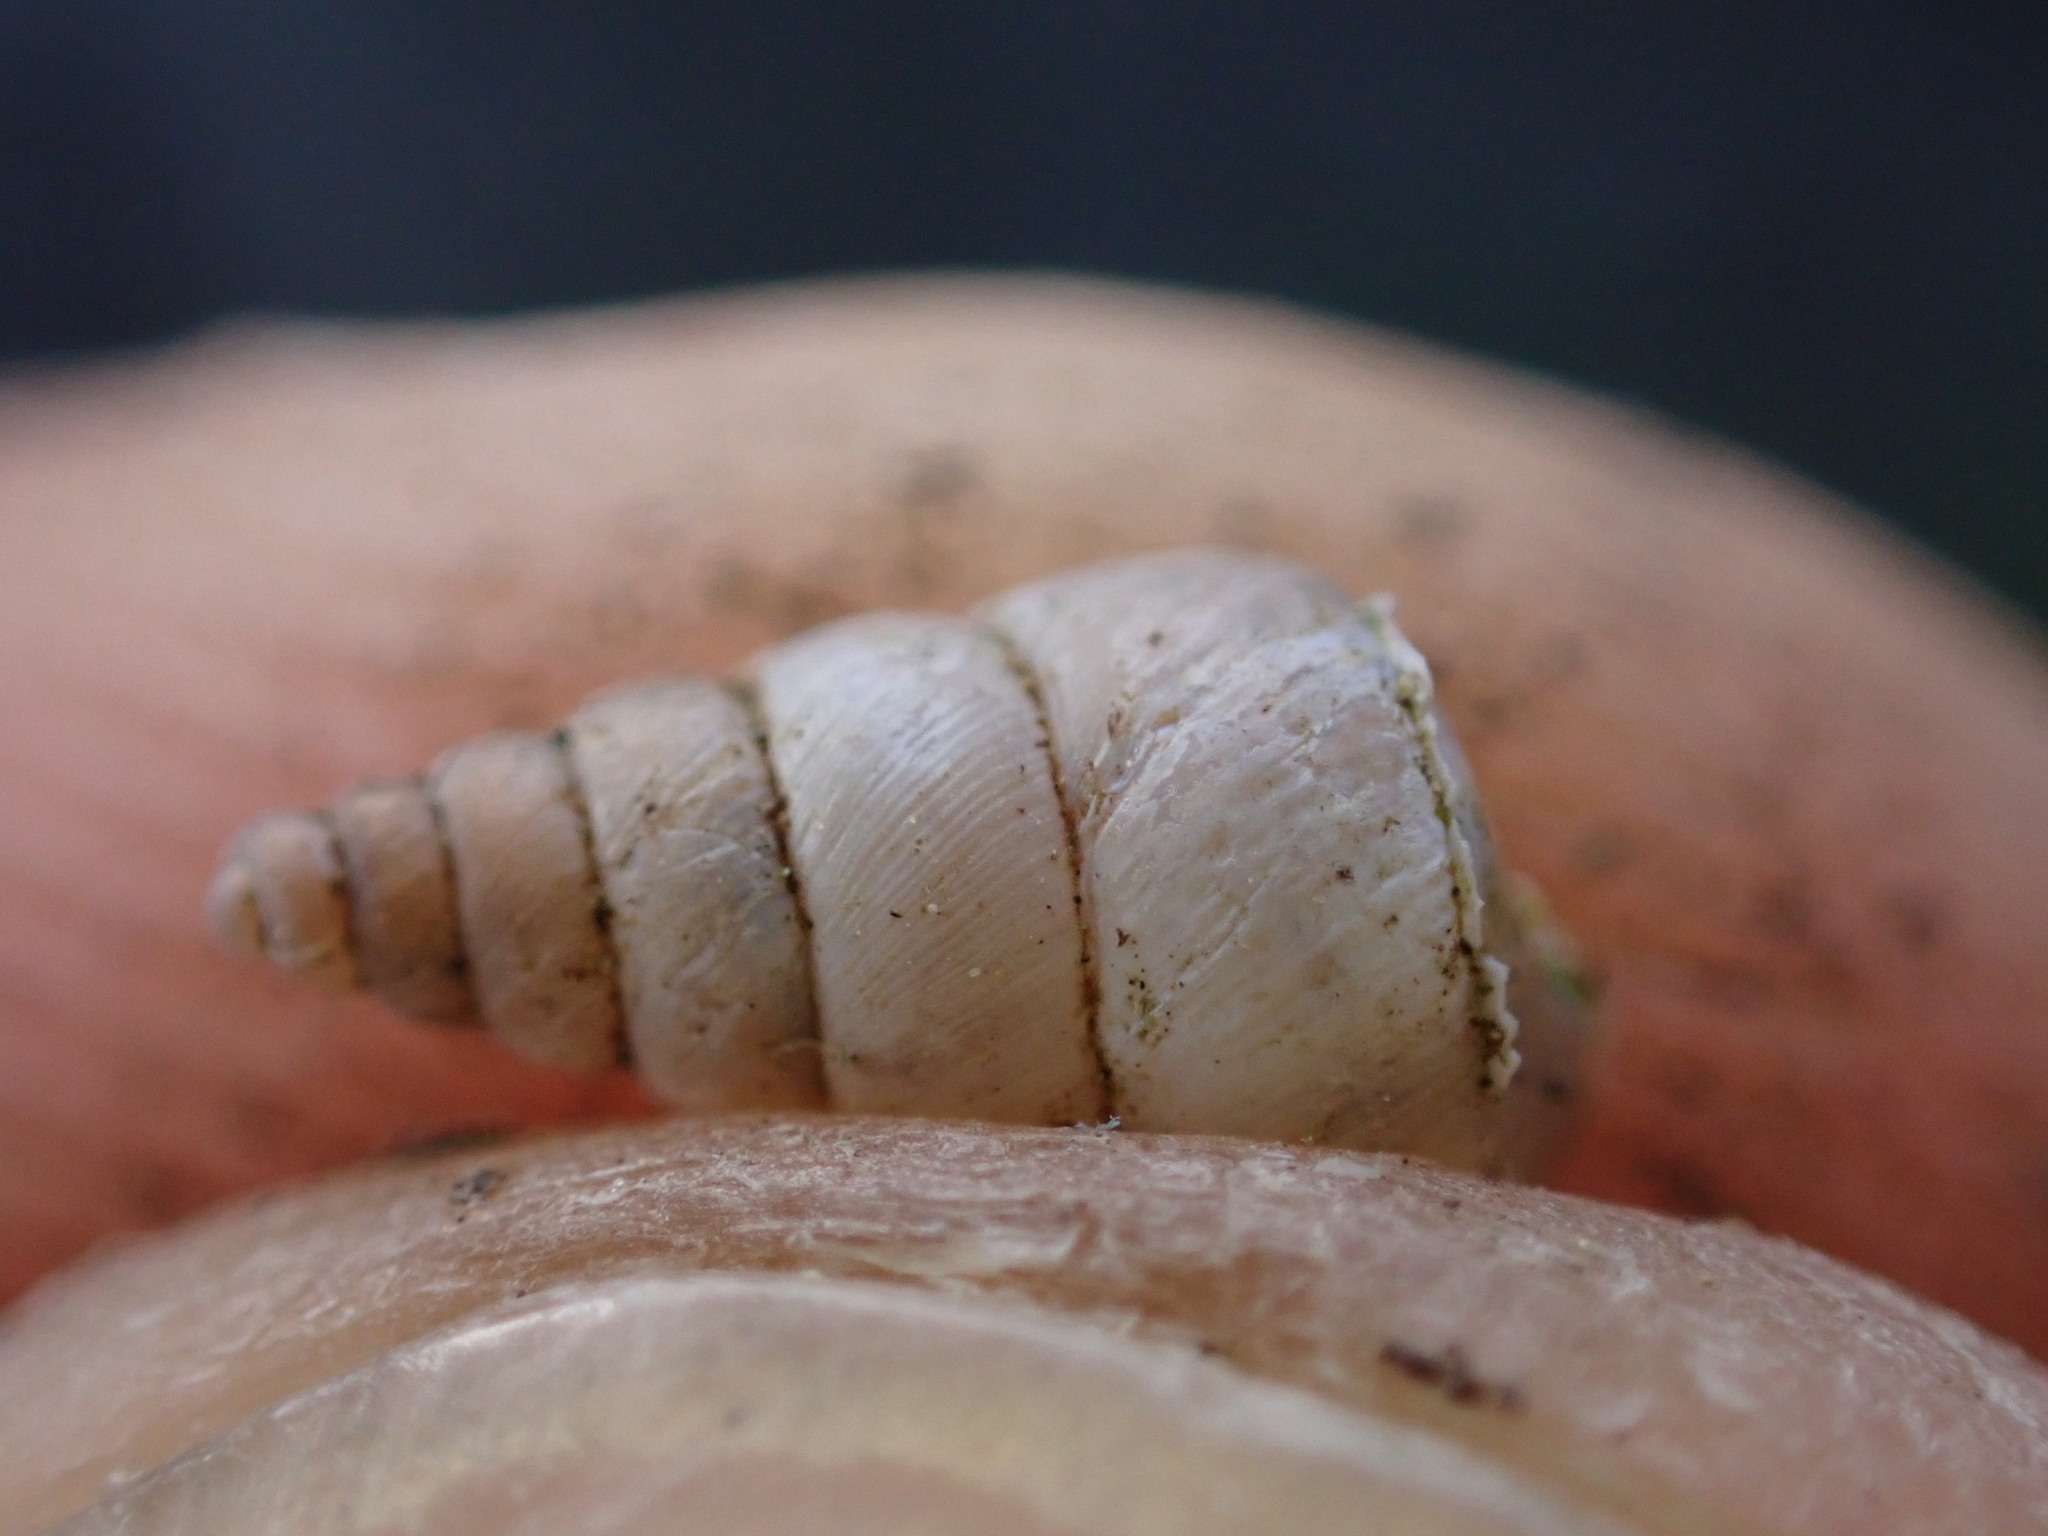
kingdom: Animalia
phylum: Mollusca
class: Gastropoda
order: Stylommatophora
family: Chondrinidae
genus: Solatopupa
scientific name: Solatopupa similis
